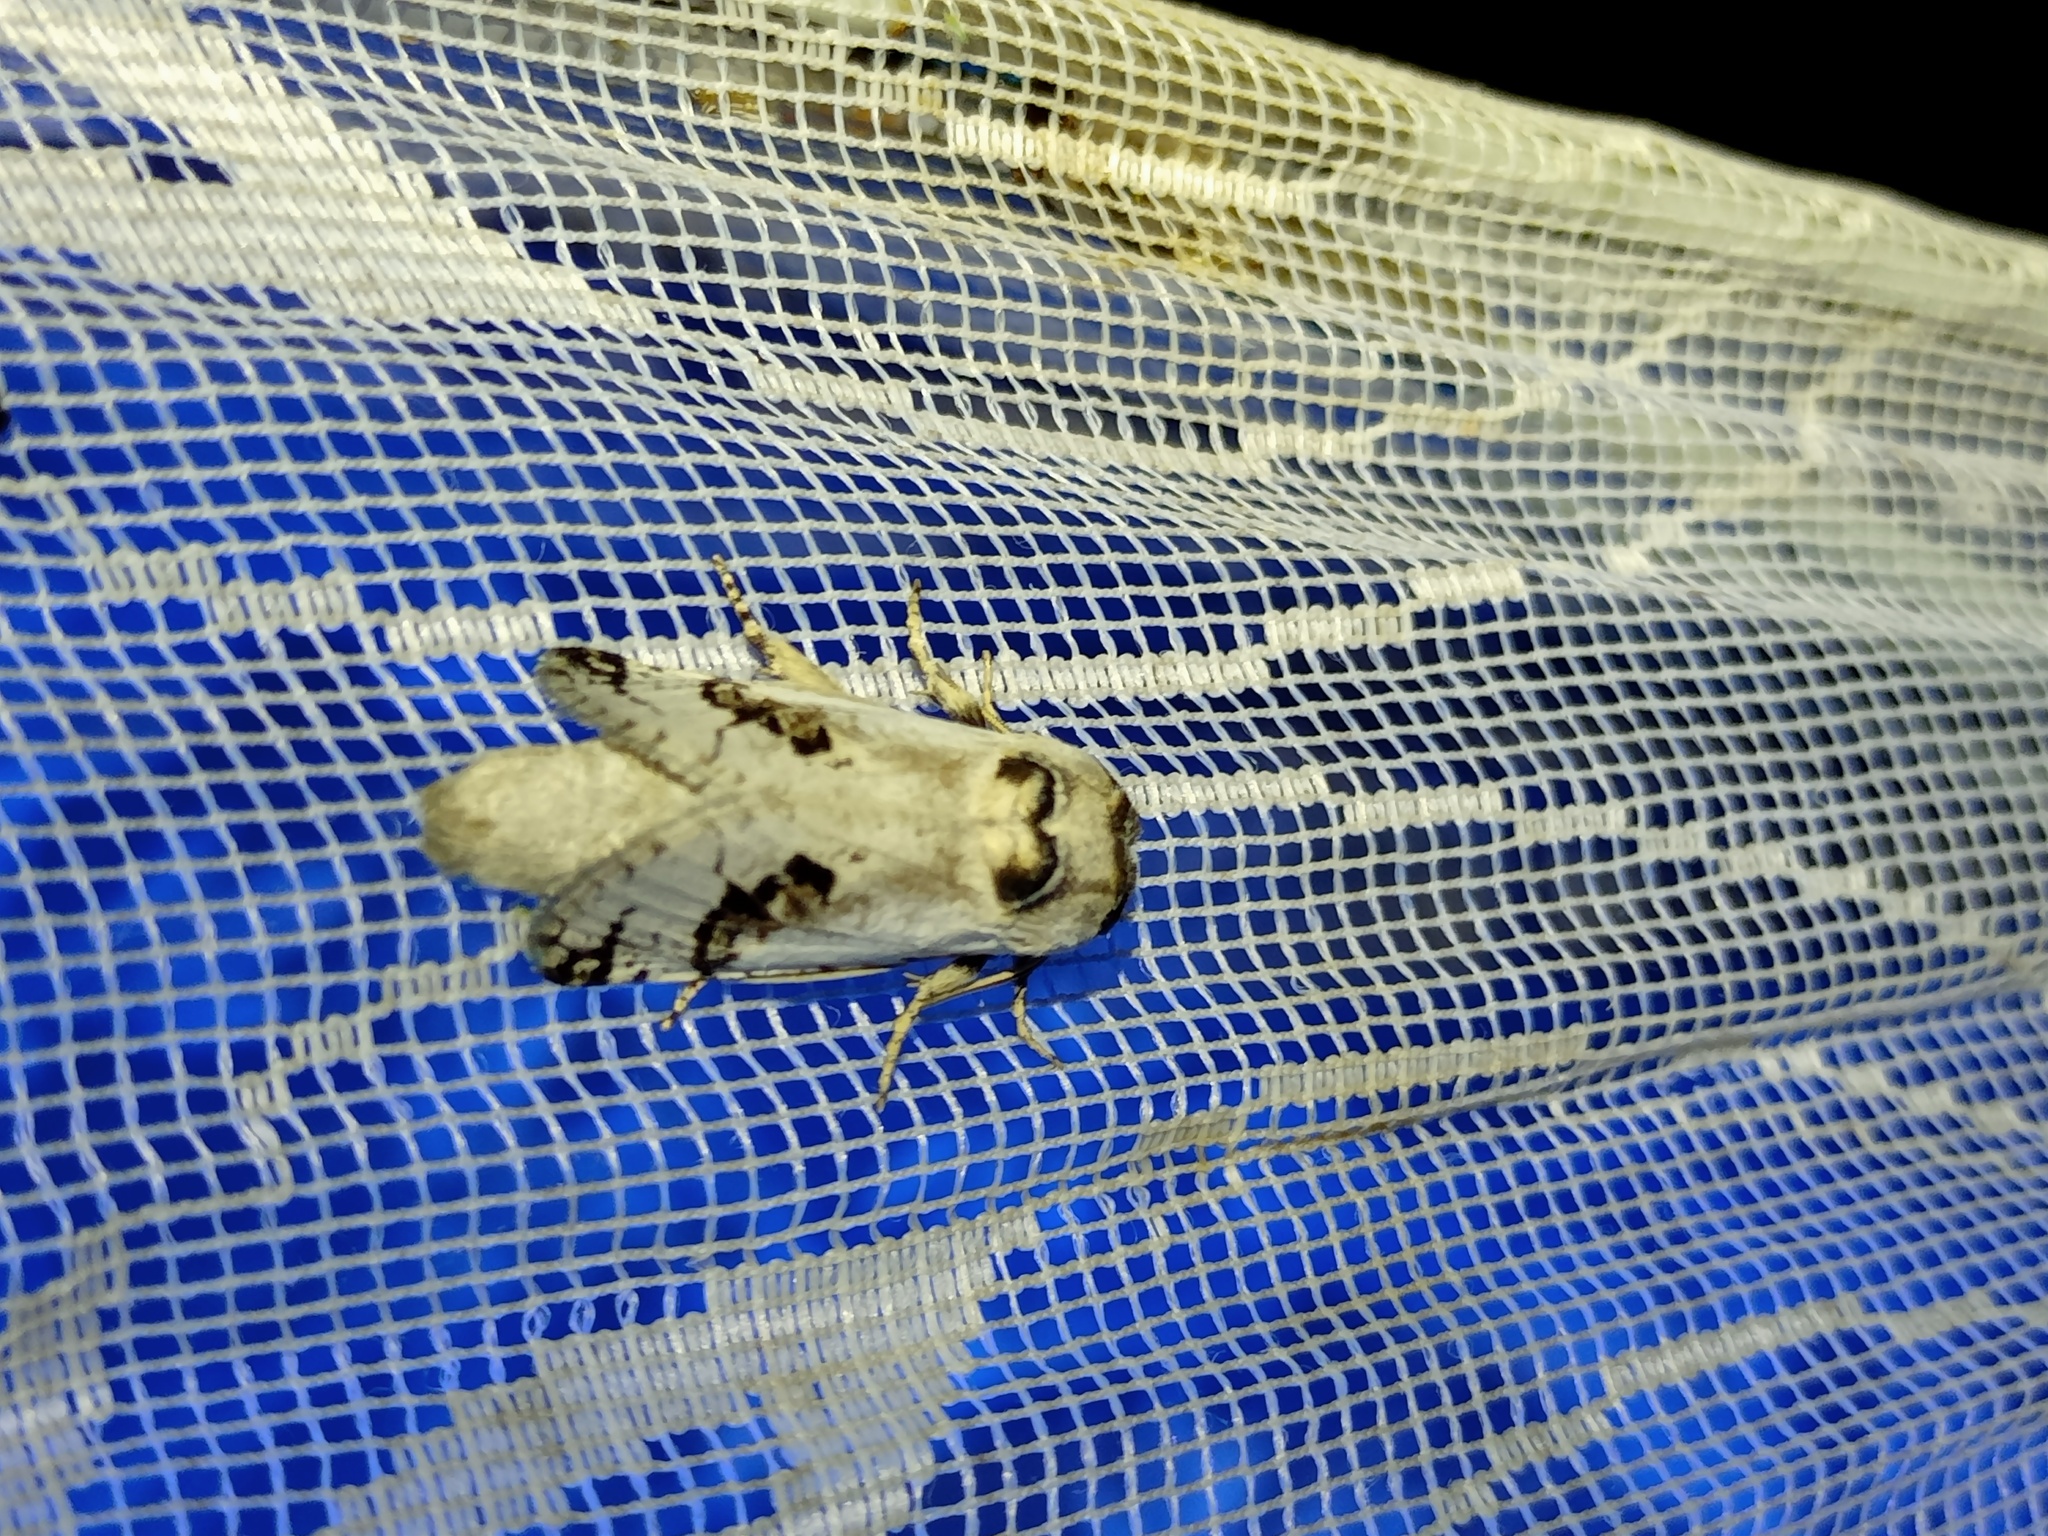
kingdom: Animalia
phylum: Arthropoda
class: Insecta
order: Lepidoptera
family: Cossidae
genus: Parahypopta
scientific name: Parahypopta caestrum
